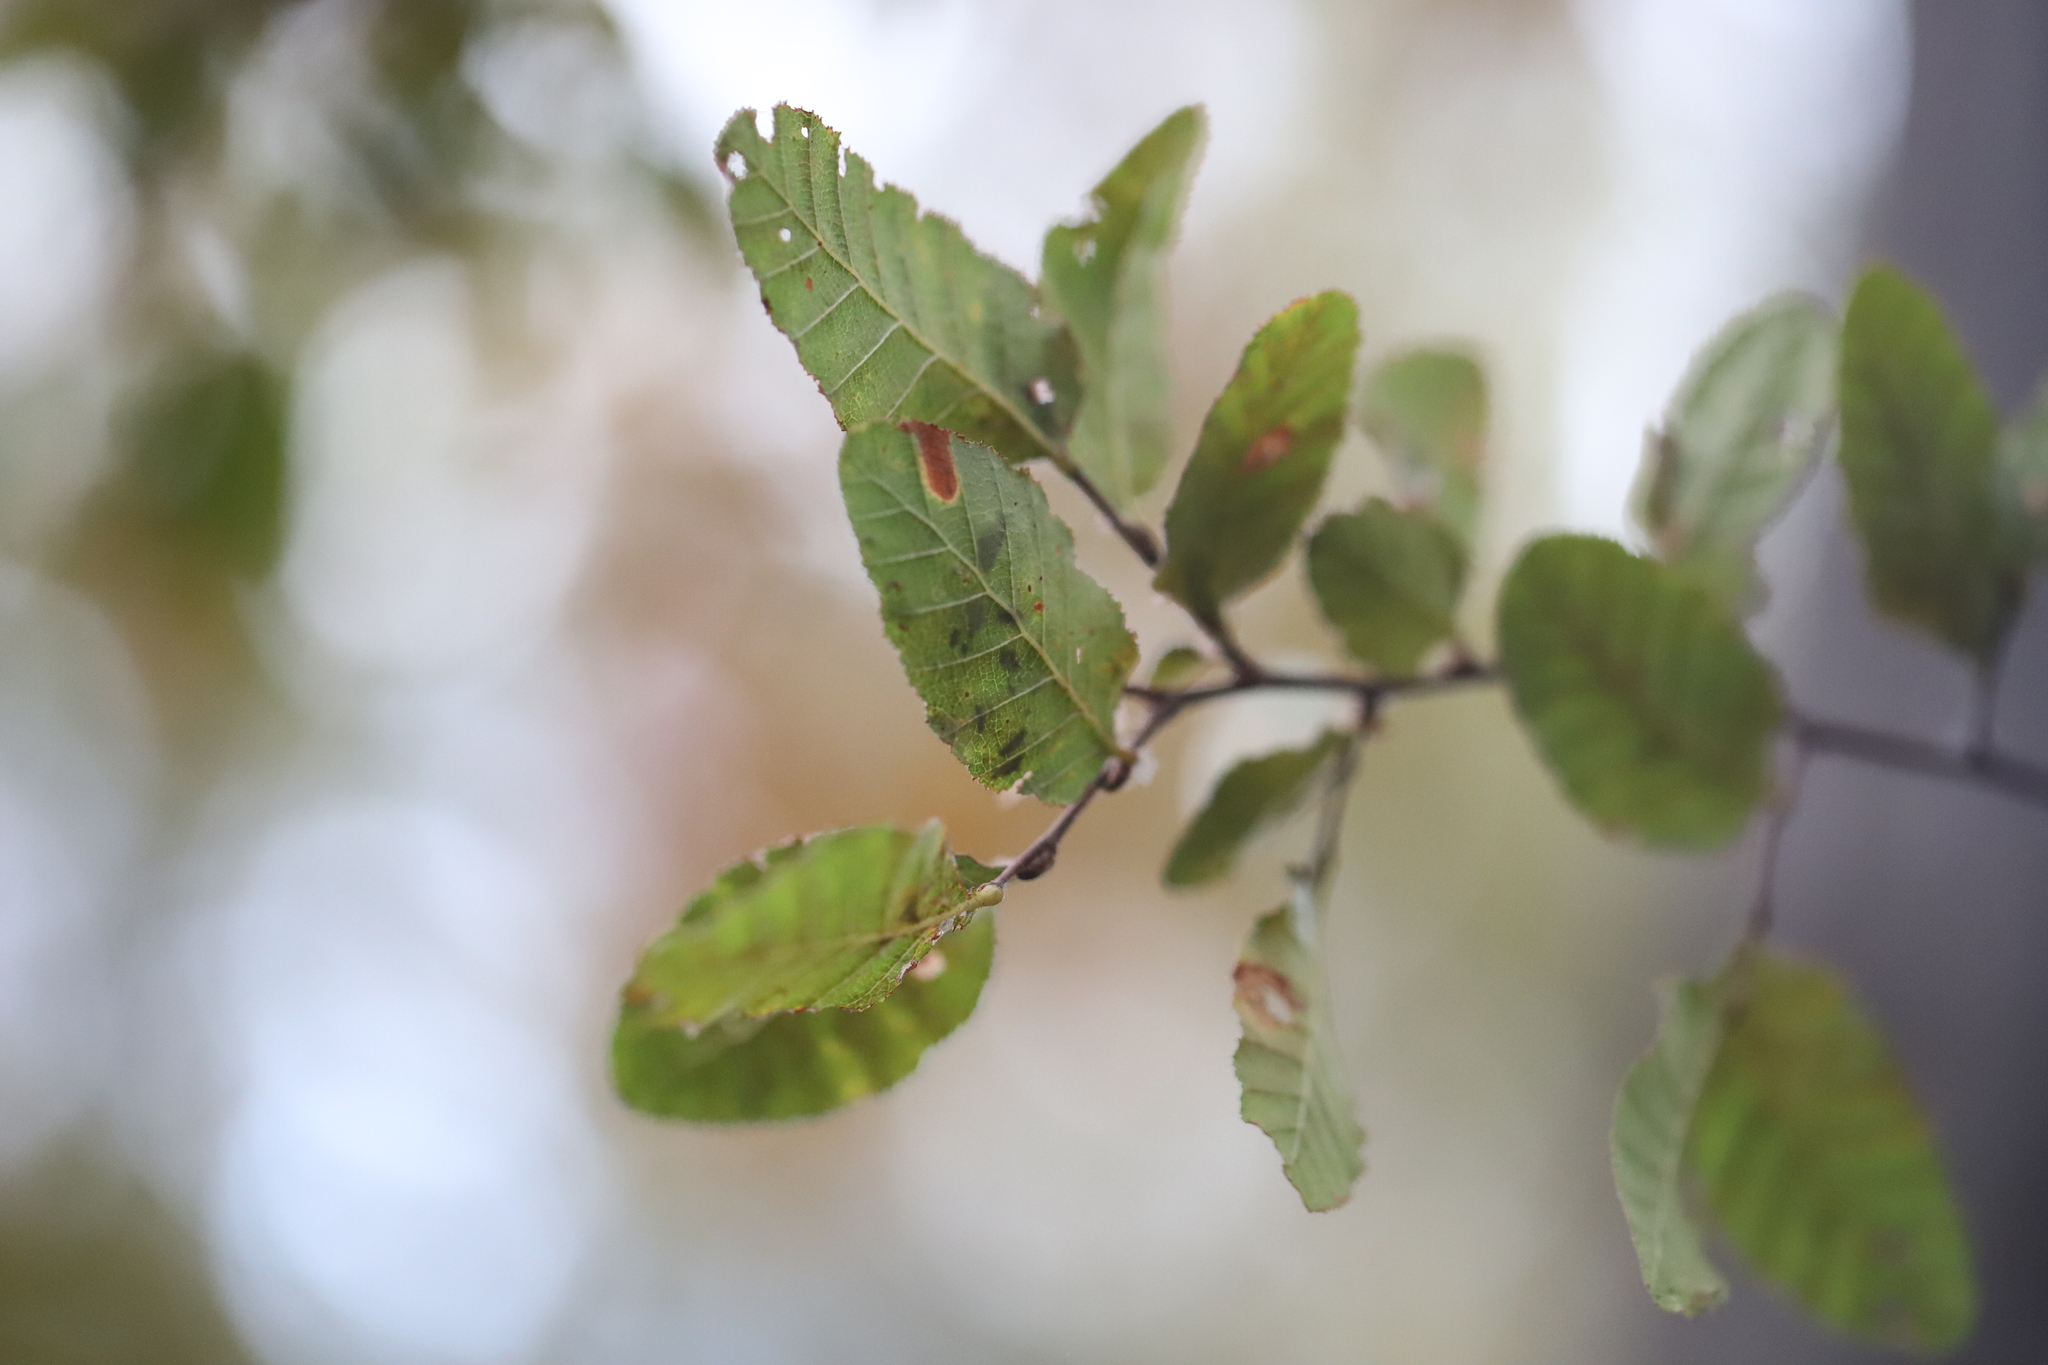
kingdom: Plantae
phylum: Tracheophyta
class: Magnoliopsida
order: Fagales
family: Nothofagaceae
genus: Nothofagus
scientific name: Nothofagus obliqua
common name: Roble beech
